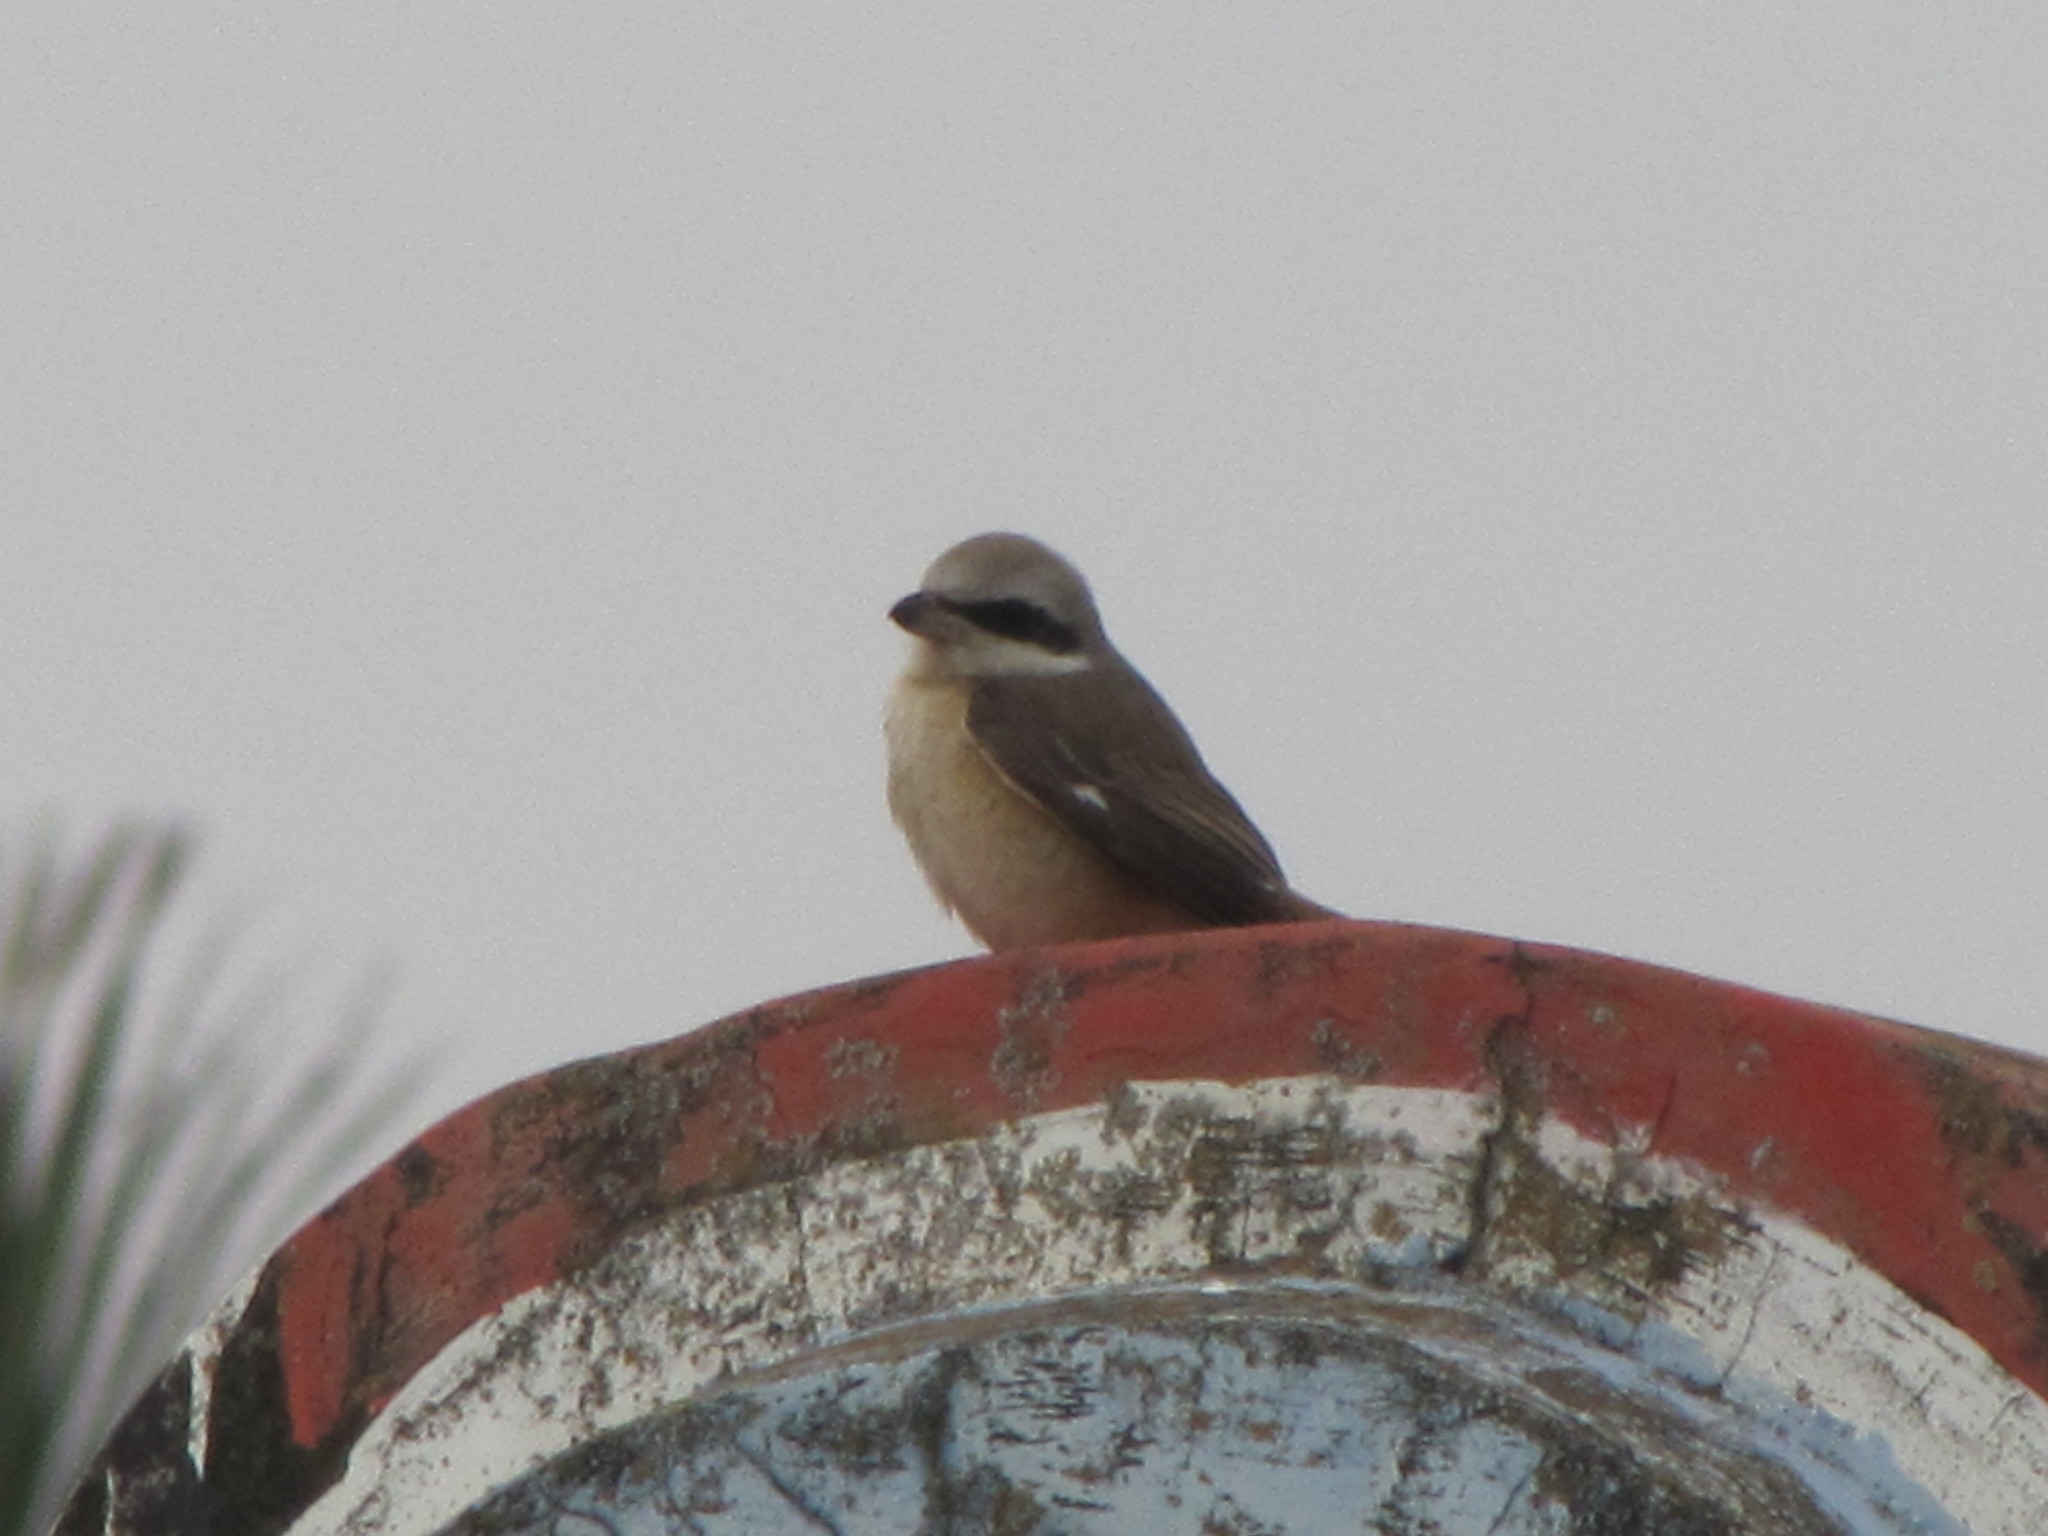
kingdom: Animalia
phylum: Chordata
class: Aves
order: Passeriformes
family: Laniidae
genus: Lanius
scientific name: Lanius cristatus
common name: Brown shrike
